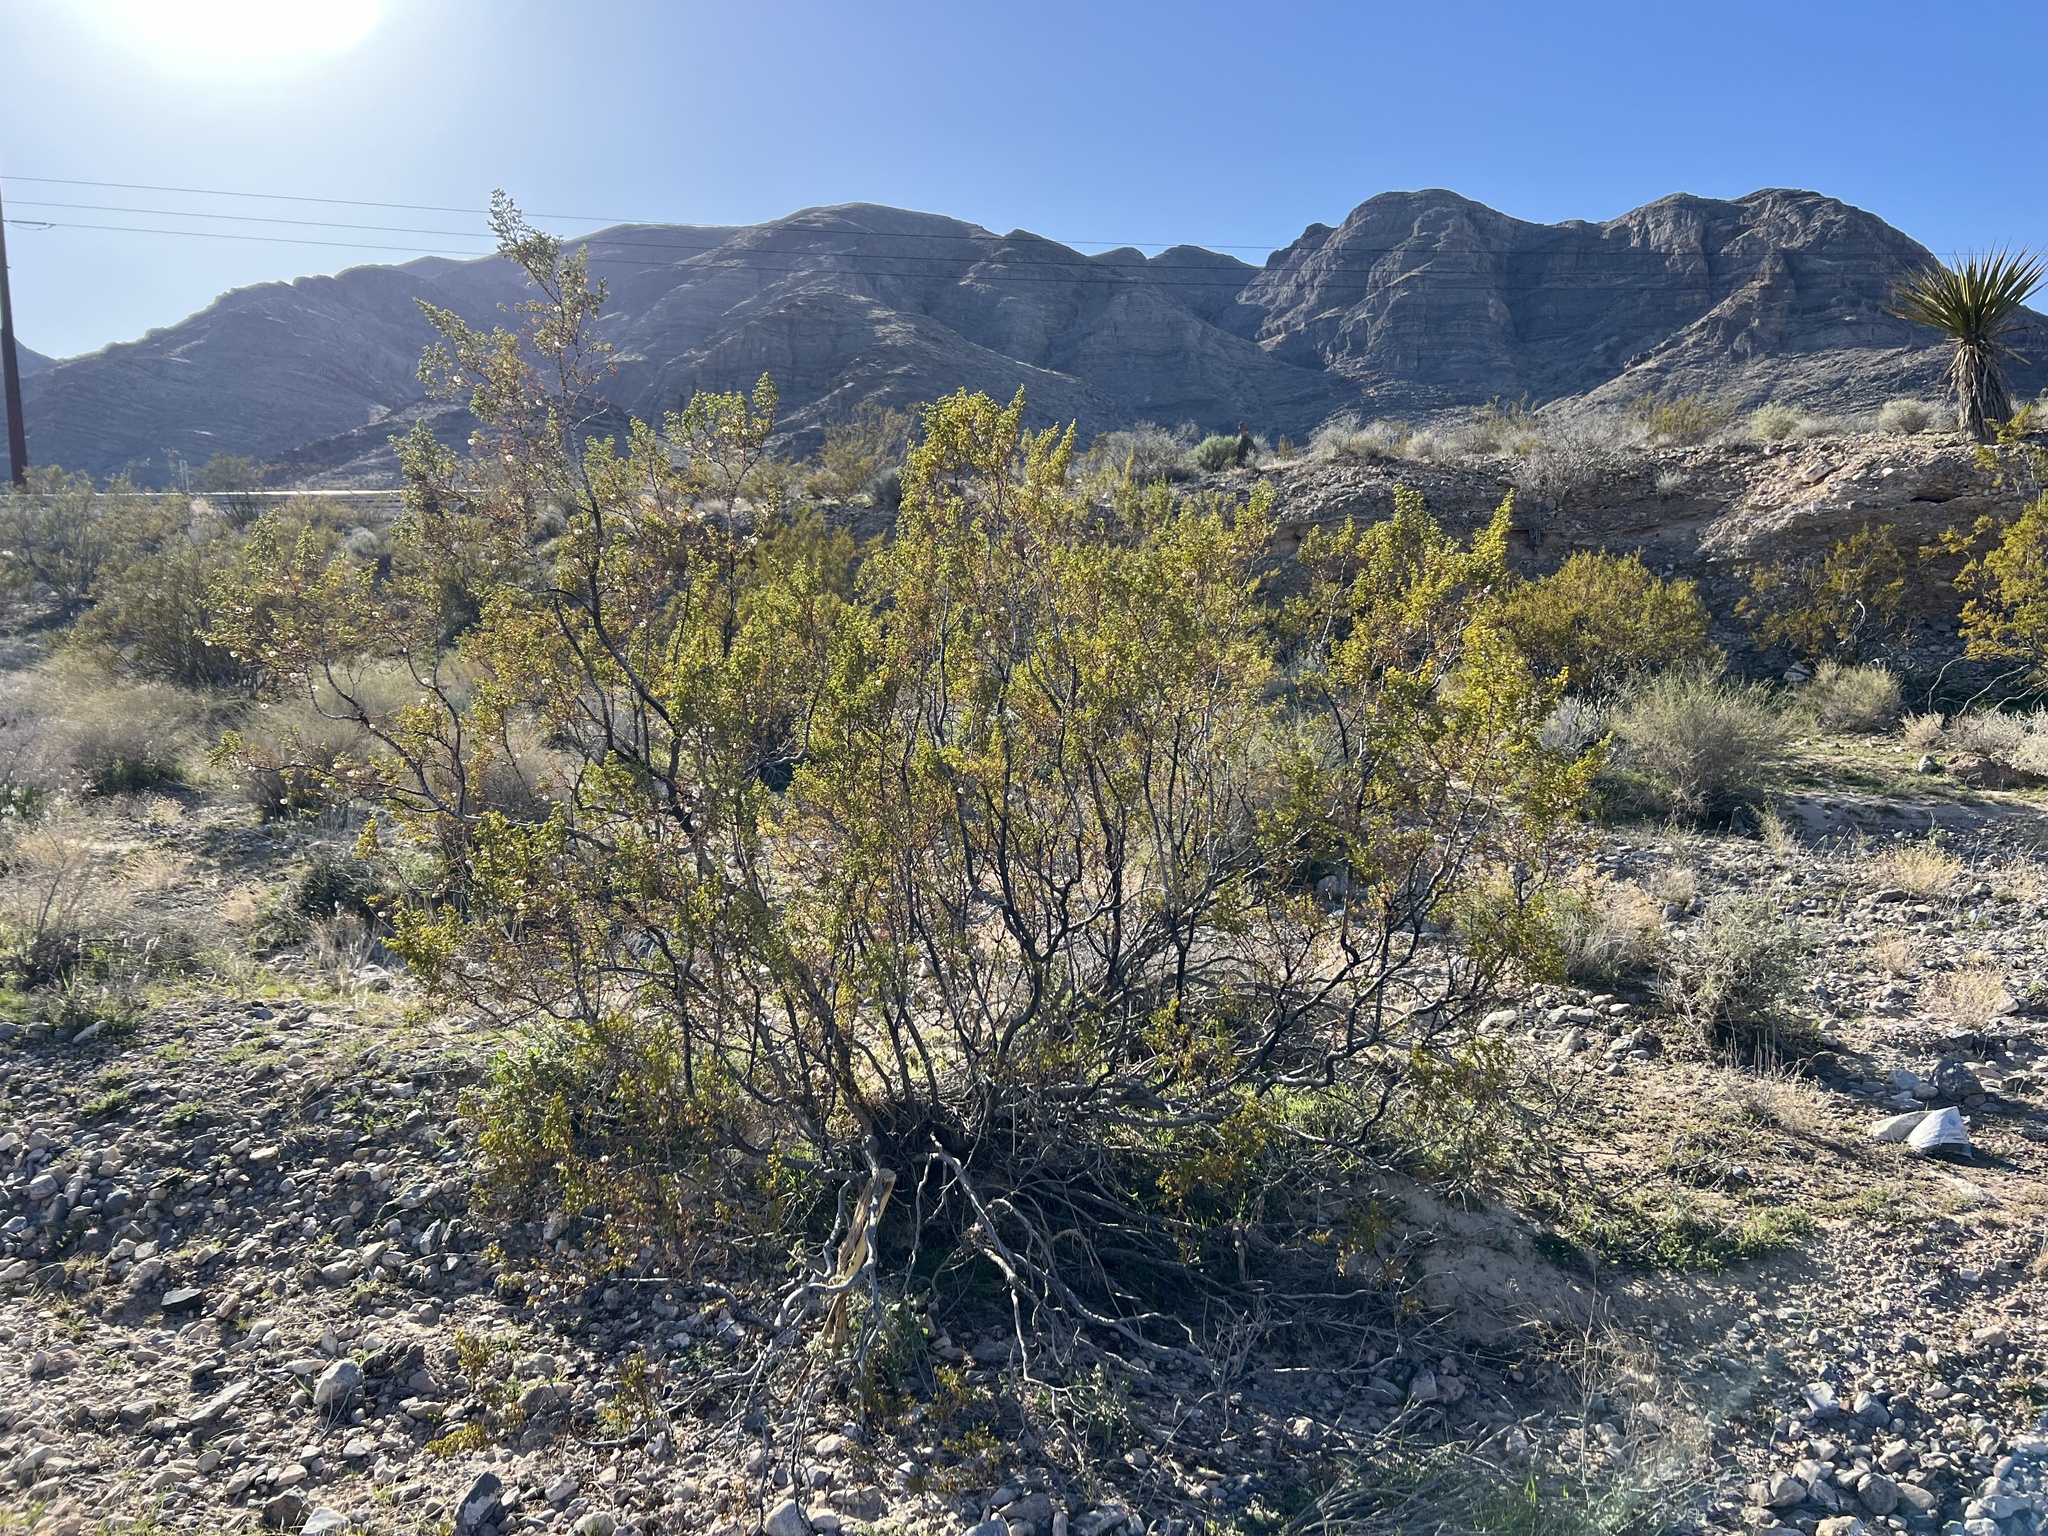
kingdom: Plantae
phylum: Tracheophyta
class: Magnoliopsida
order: Zygophyllales
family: Zygophyllaceae
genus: Larrea
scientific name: Larrea tridentata
